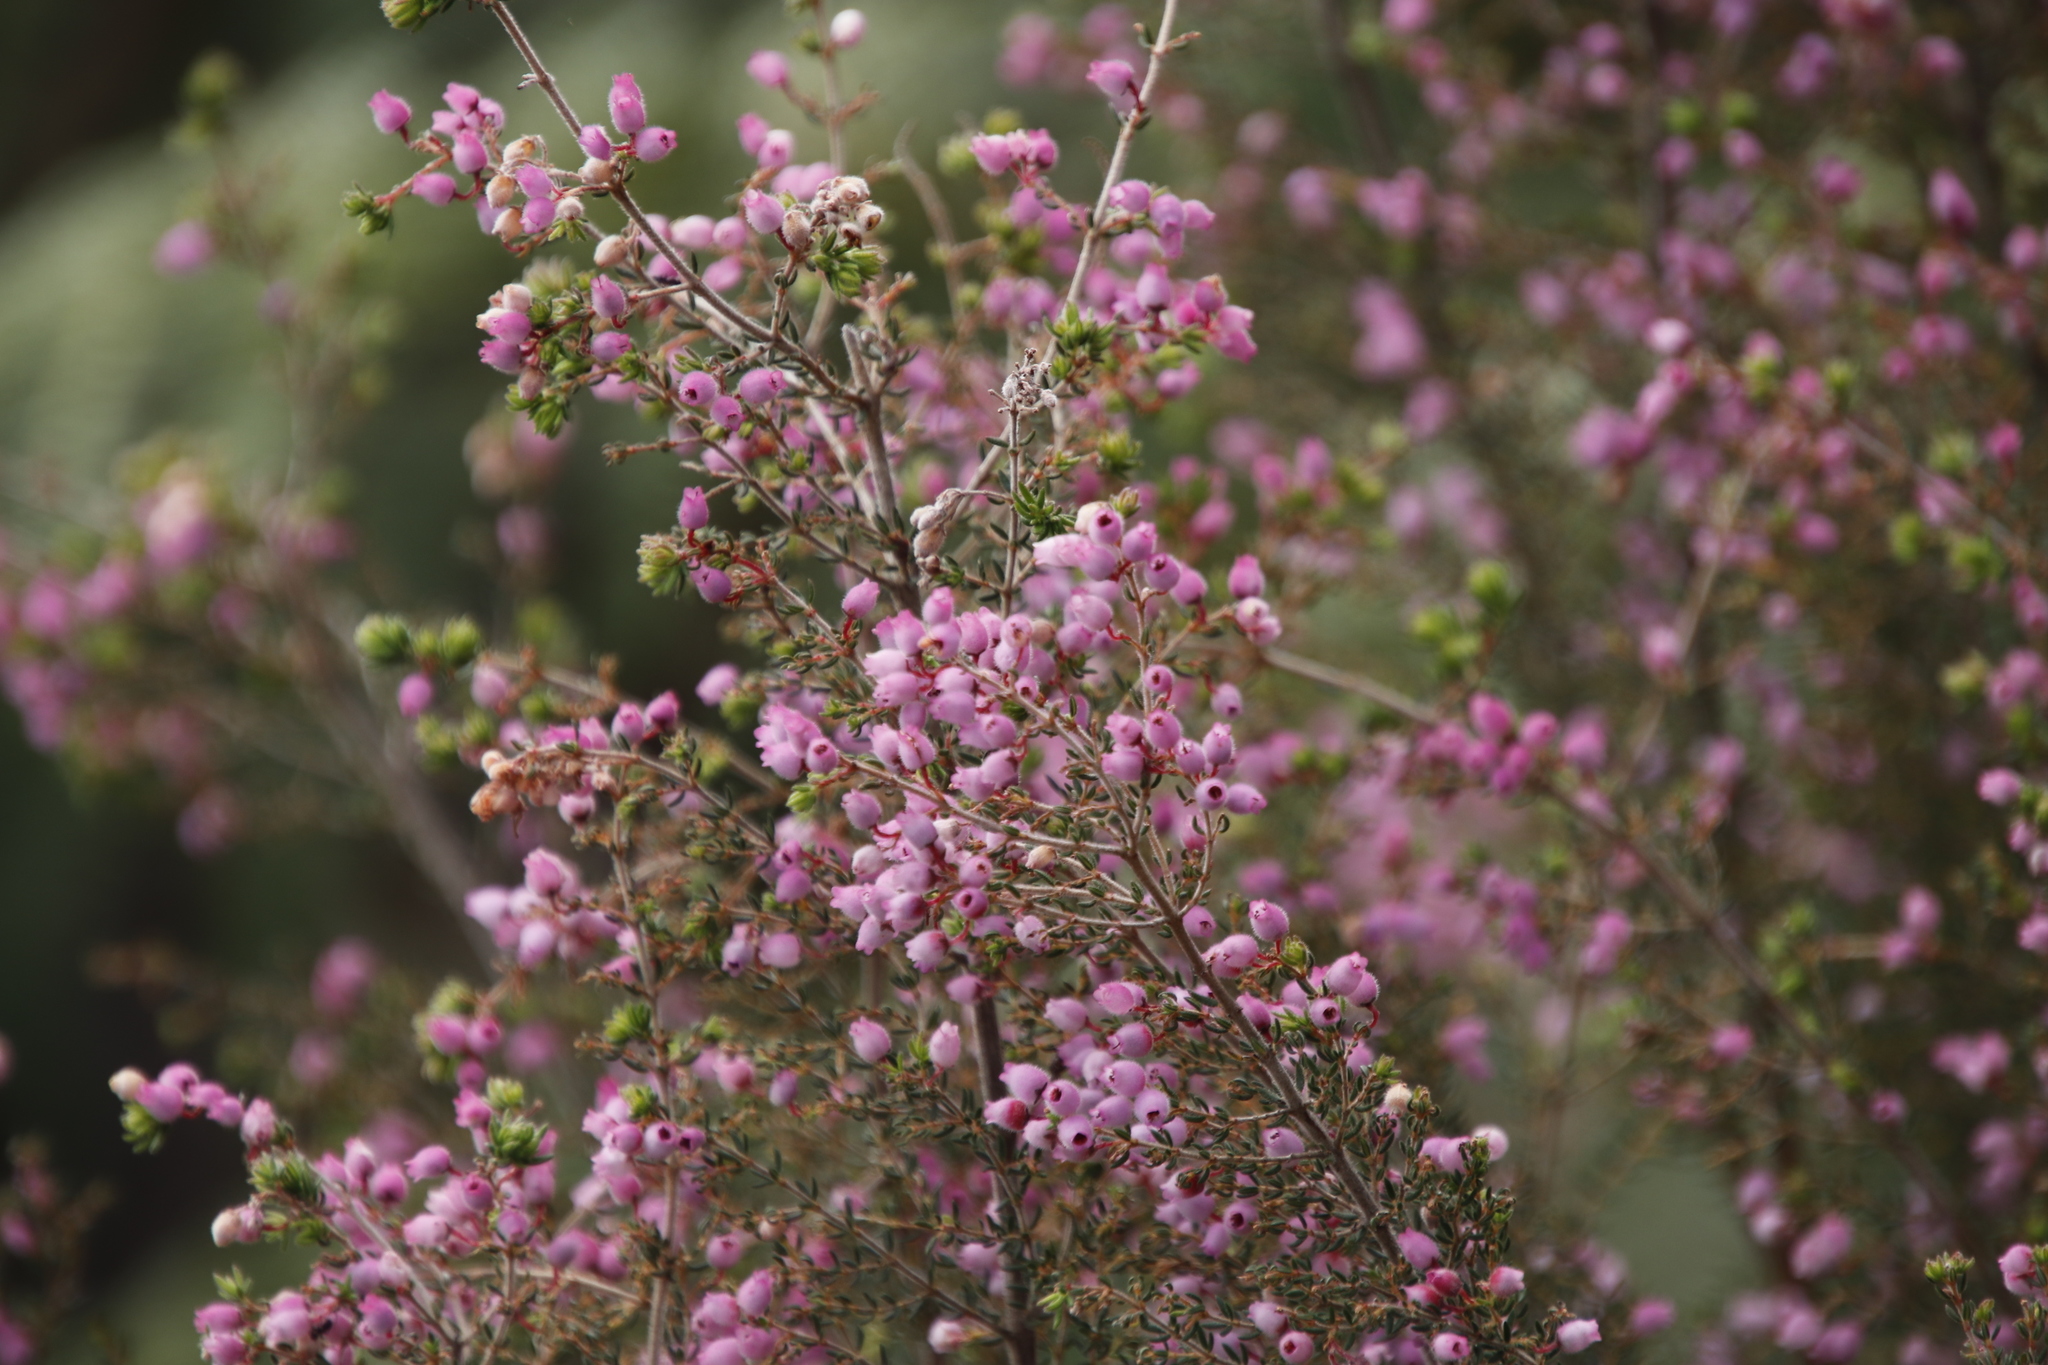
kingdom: Plantae
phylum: Tracheophyta
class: Magnoliopsida
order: Ericales
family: Ericaceae
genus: Erica
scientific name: Erica hirtiflora
